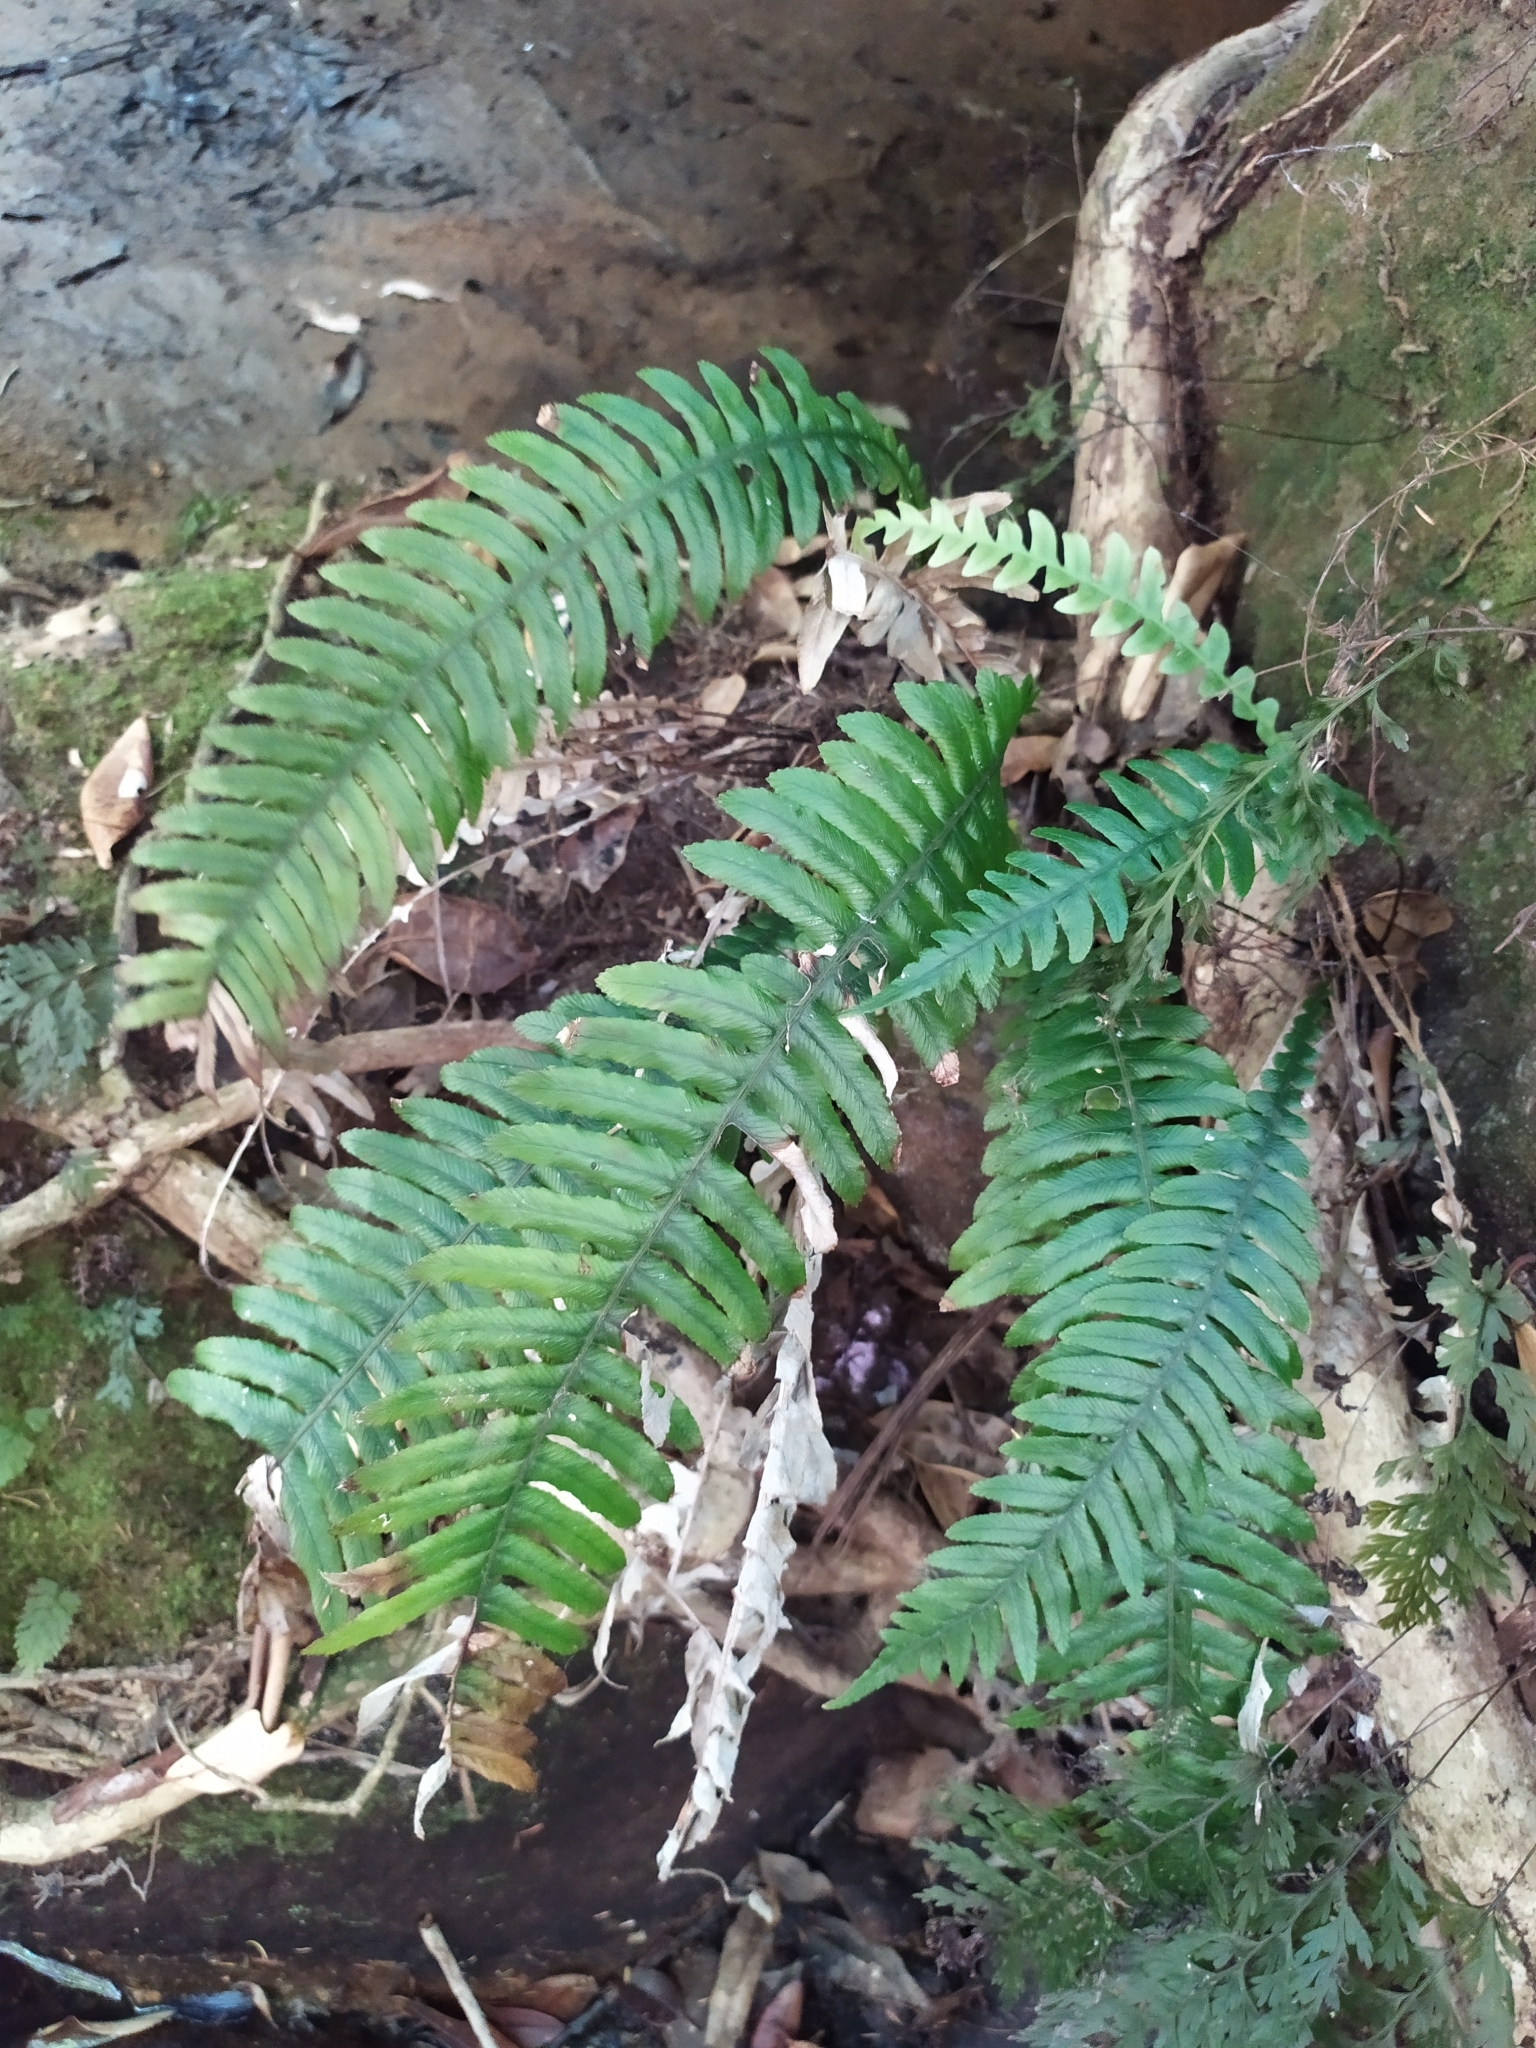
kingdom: Plantae
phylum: Tracheophyta
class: Polypodiopsida
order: Polypodiales
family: Blechnaceae
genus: Austroblechnum
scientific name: Austroblechnum lanceolatum
